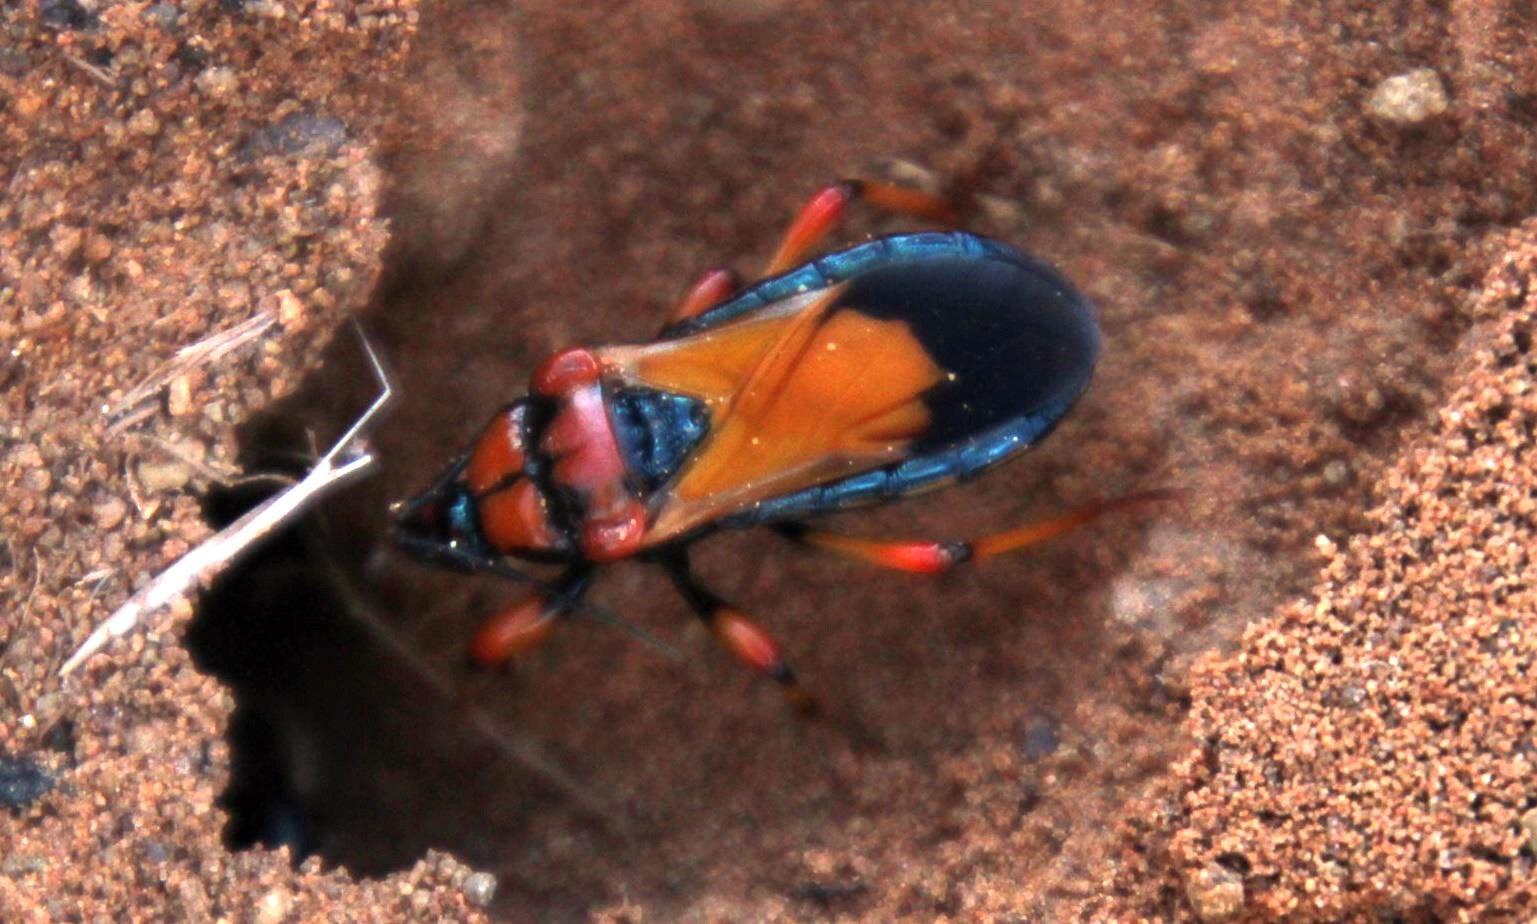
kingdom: Animalia
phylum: Arthropoda
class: Insecta
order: Hemiptera
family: Reduviidae
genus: Glymmatophora
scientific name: Glymmatophora natalensis
